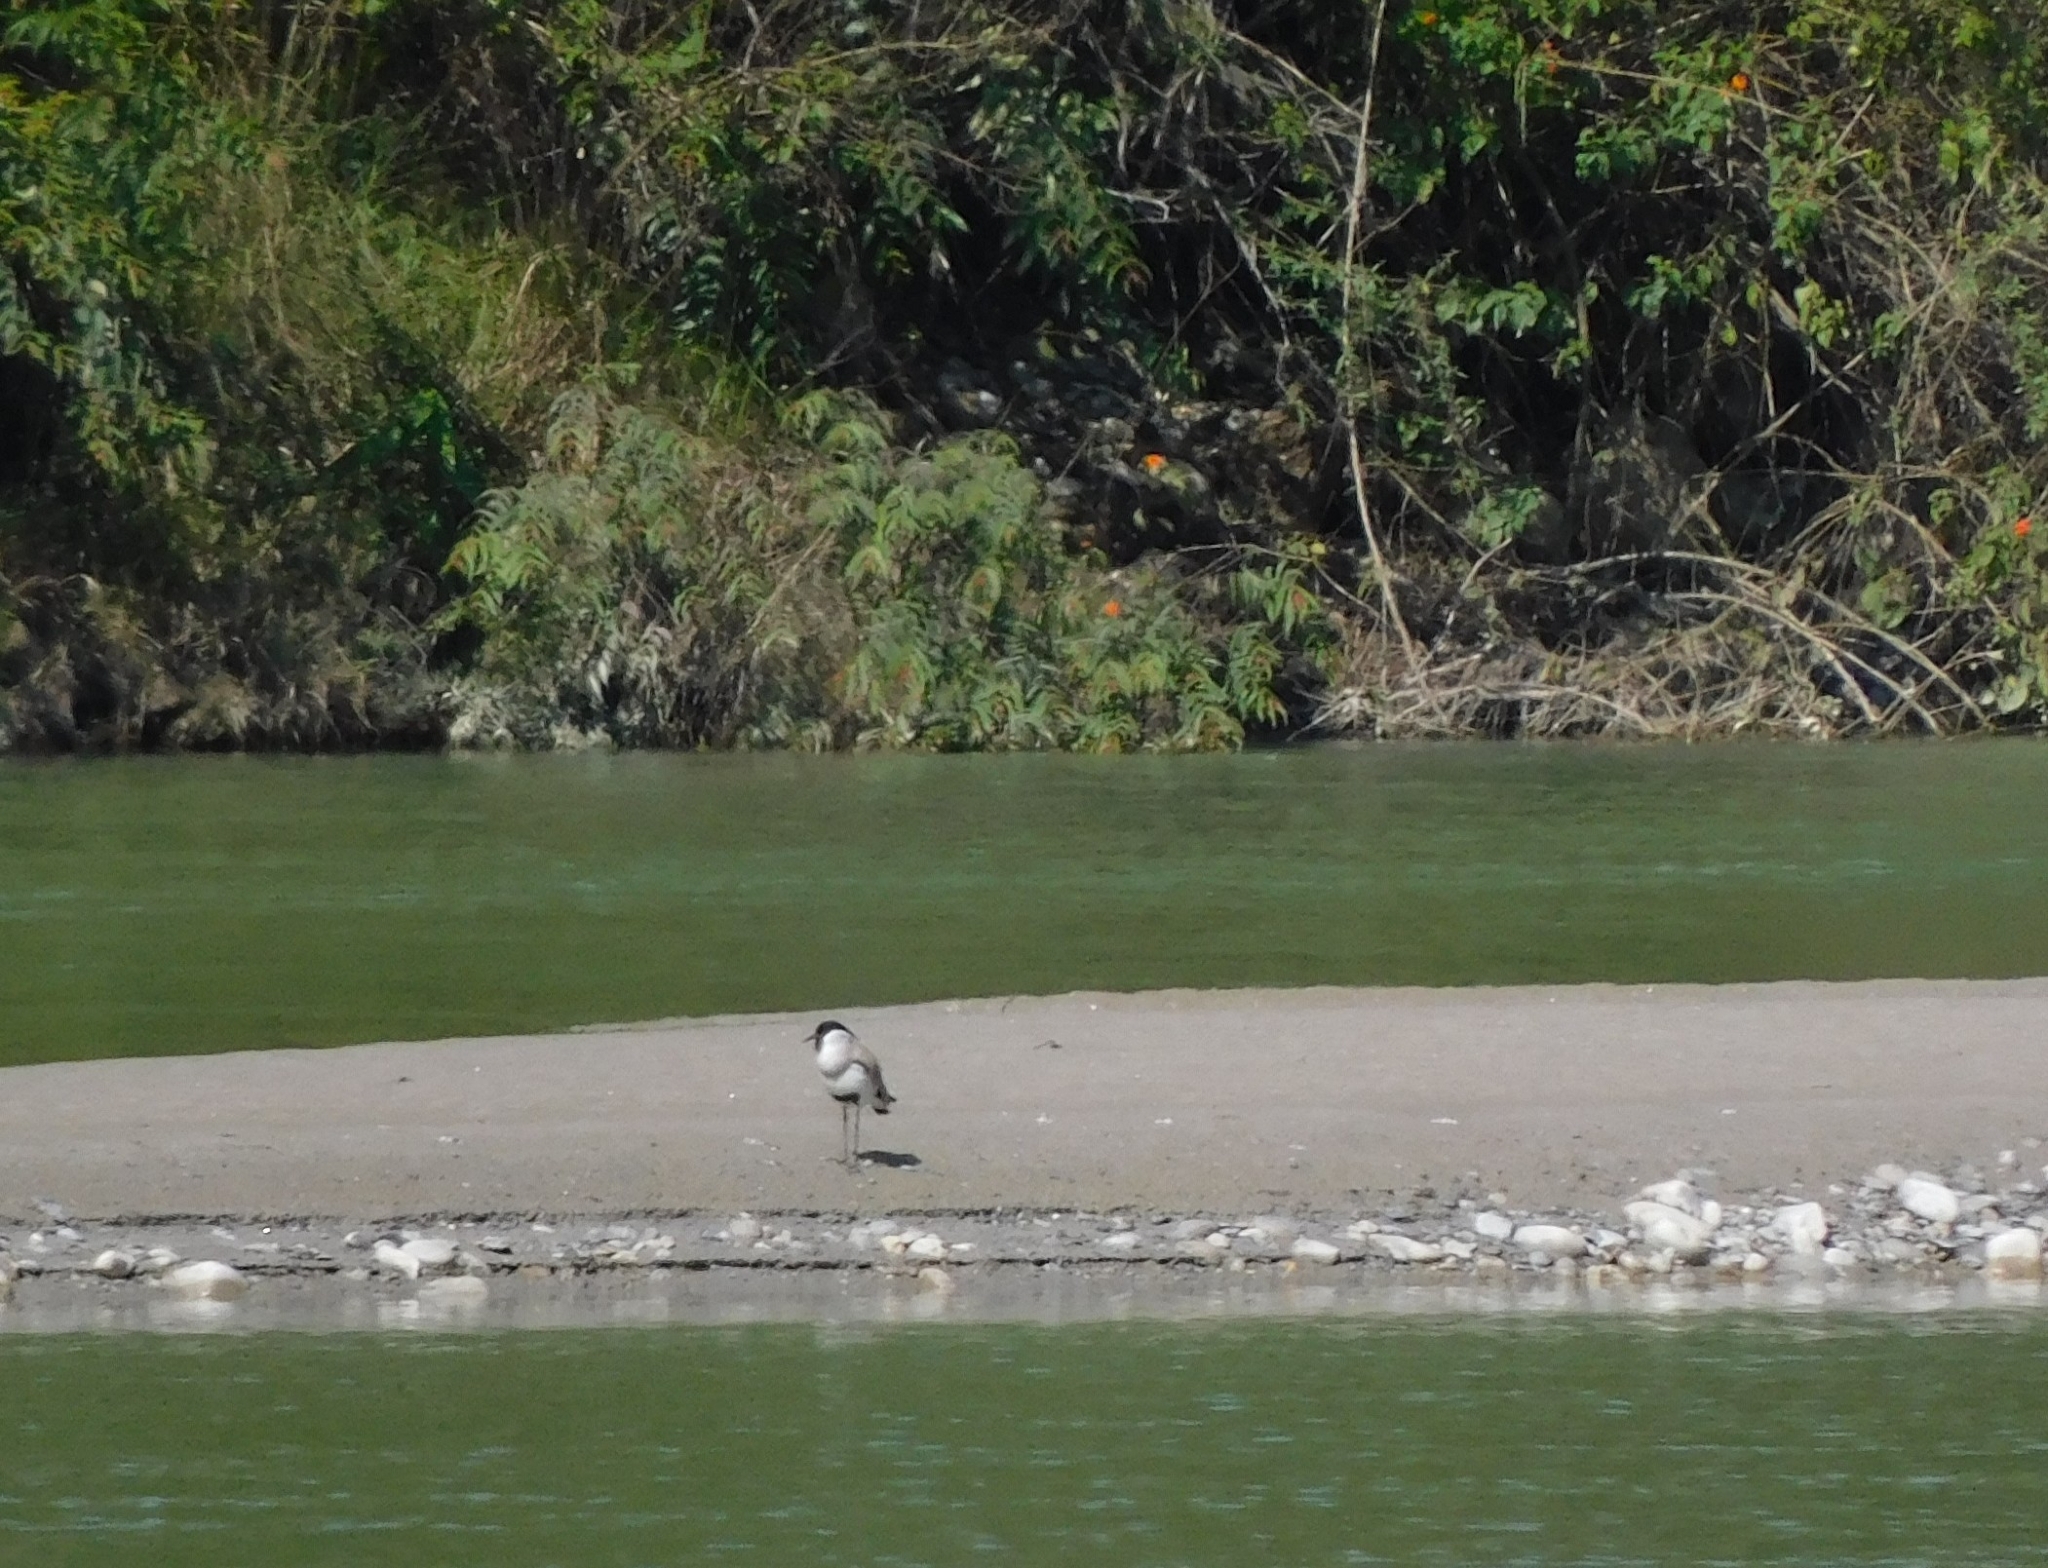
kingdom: Animalia
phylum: Chordata
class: Aves
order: Charadriiformes
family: Charadriidae
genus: Vanellus
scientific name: Vanellus duvaucelii
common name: River lapwing
